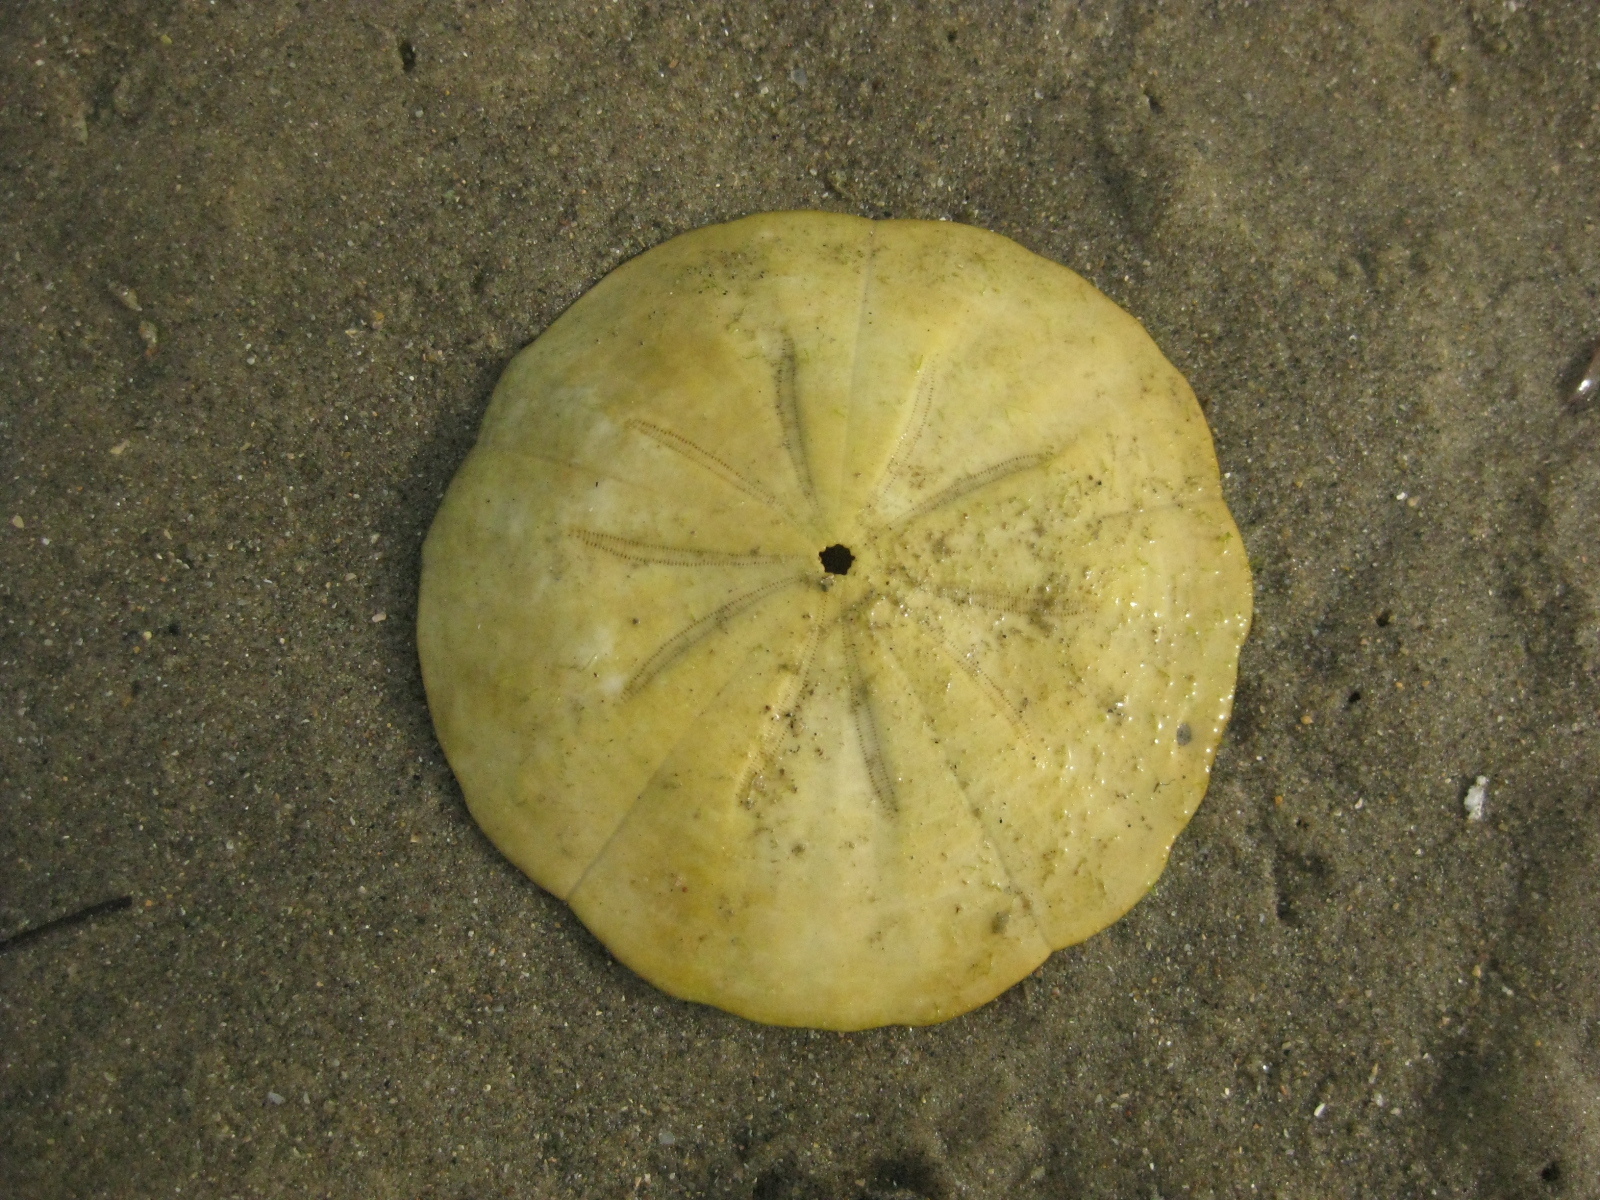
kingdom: Animalia
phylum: Echinodermata
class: Echinoidea
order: Clypeasteroida
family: Clypeasteridae
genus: Fellaster
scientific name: Fellaster zelandiae
